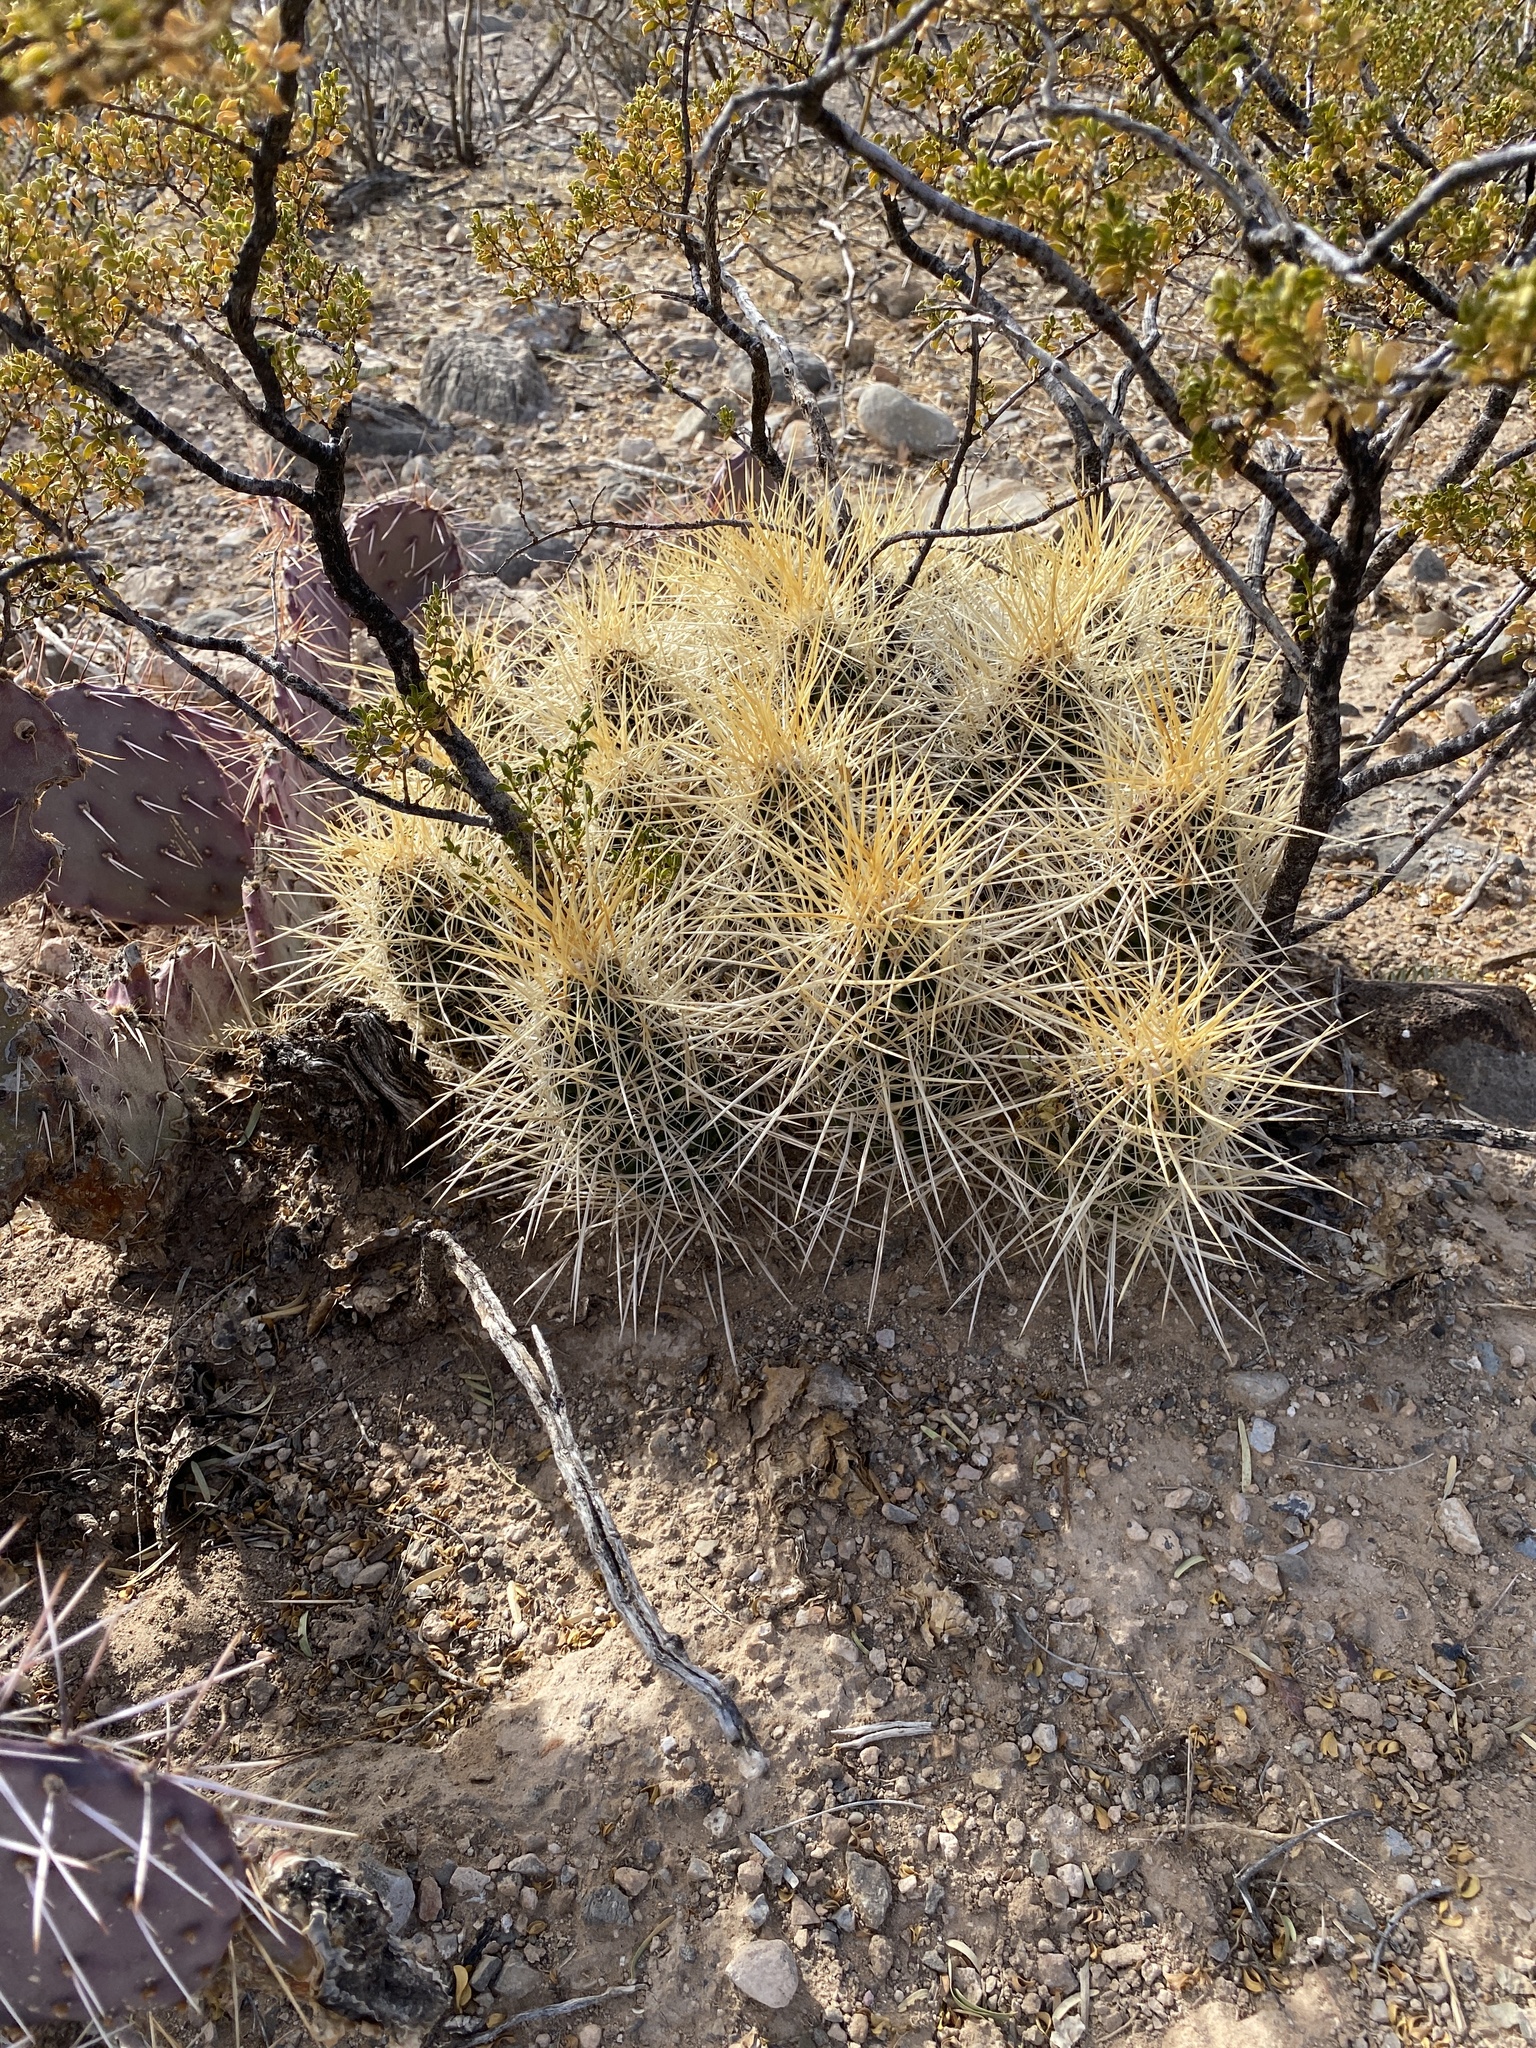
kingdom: Plantae
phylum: Tracheophyta
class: Magnoliopsida
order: Caryophyllales
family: Cactaceae
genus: Echinocereus
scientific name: Echinocereus stramineus
